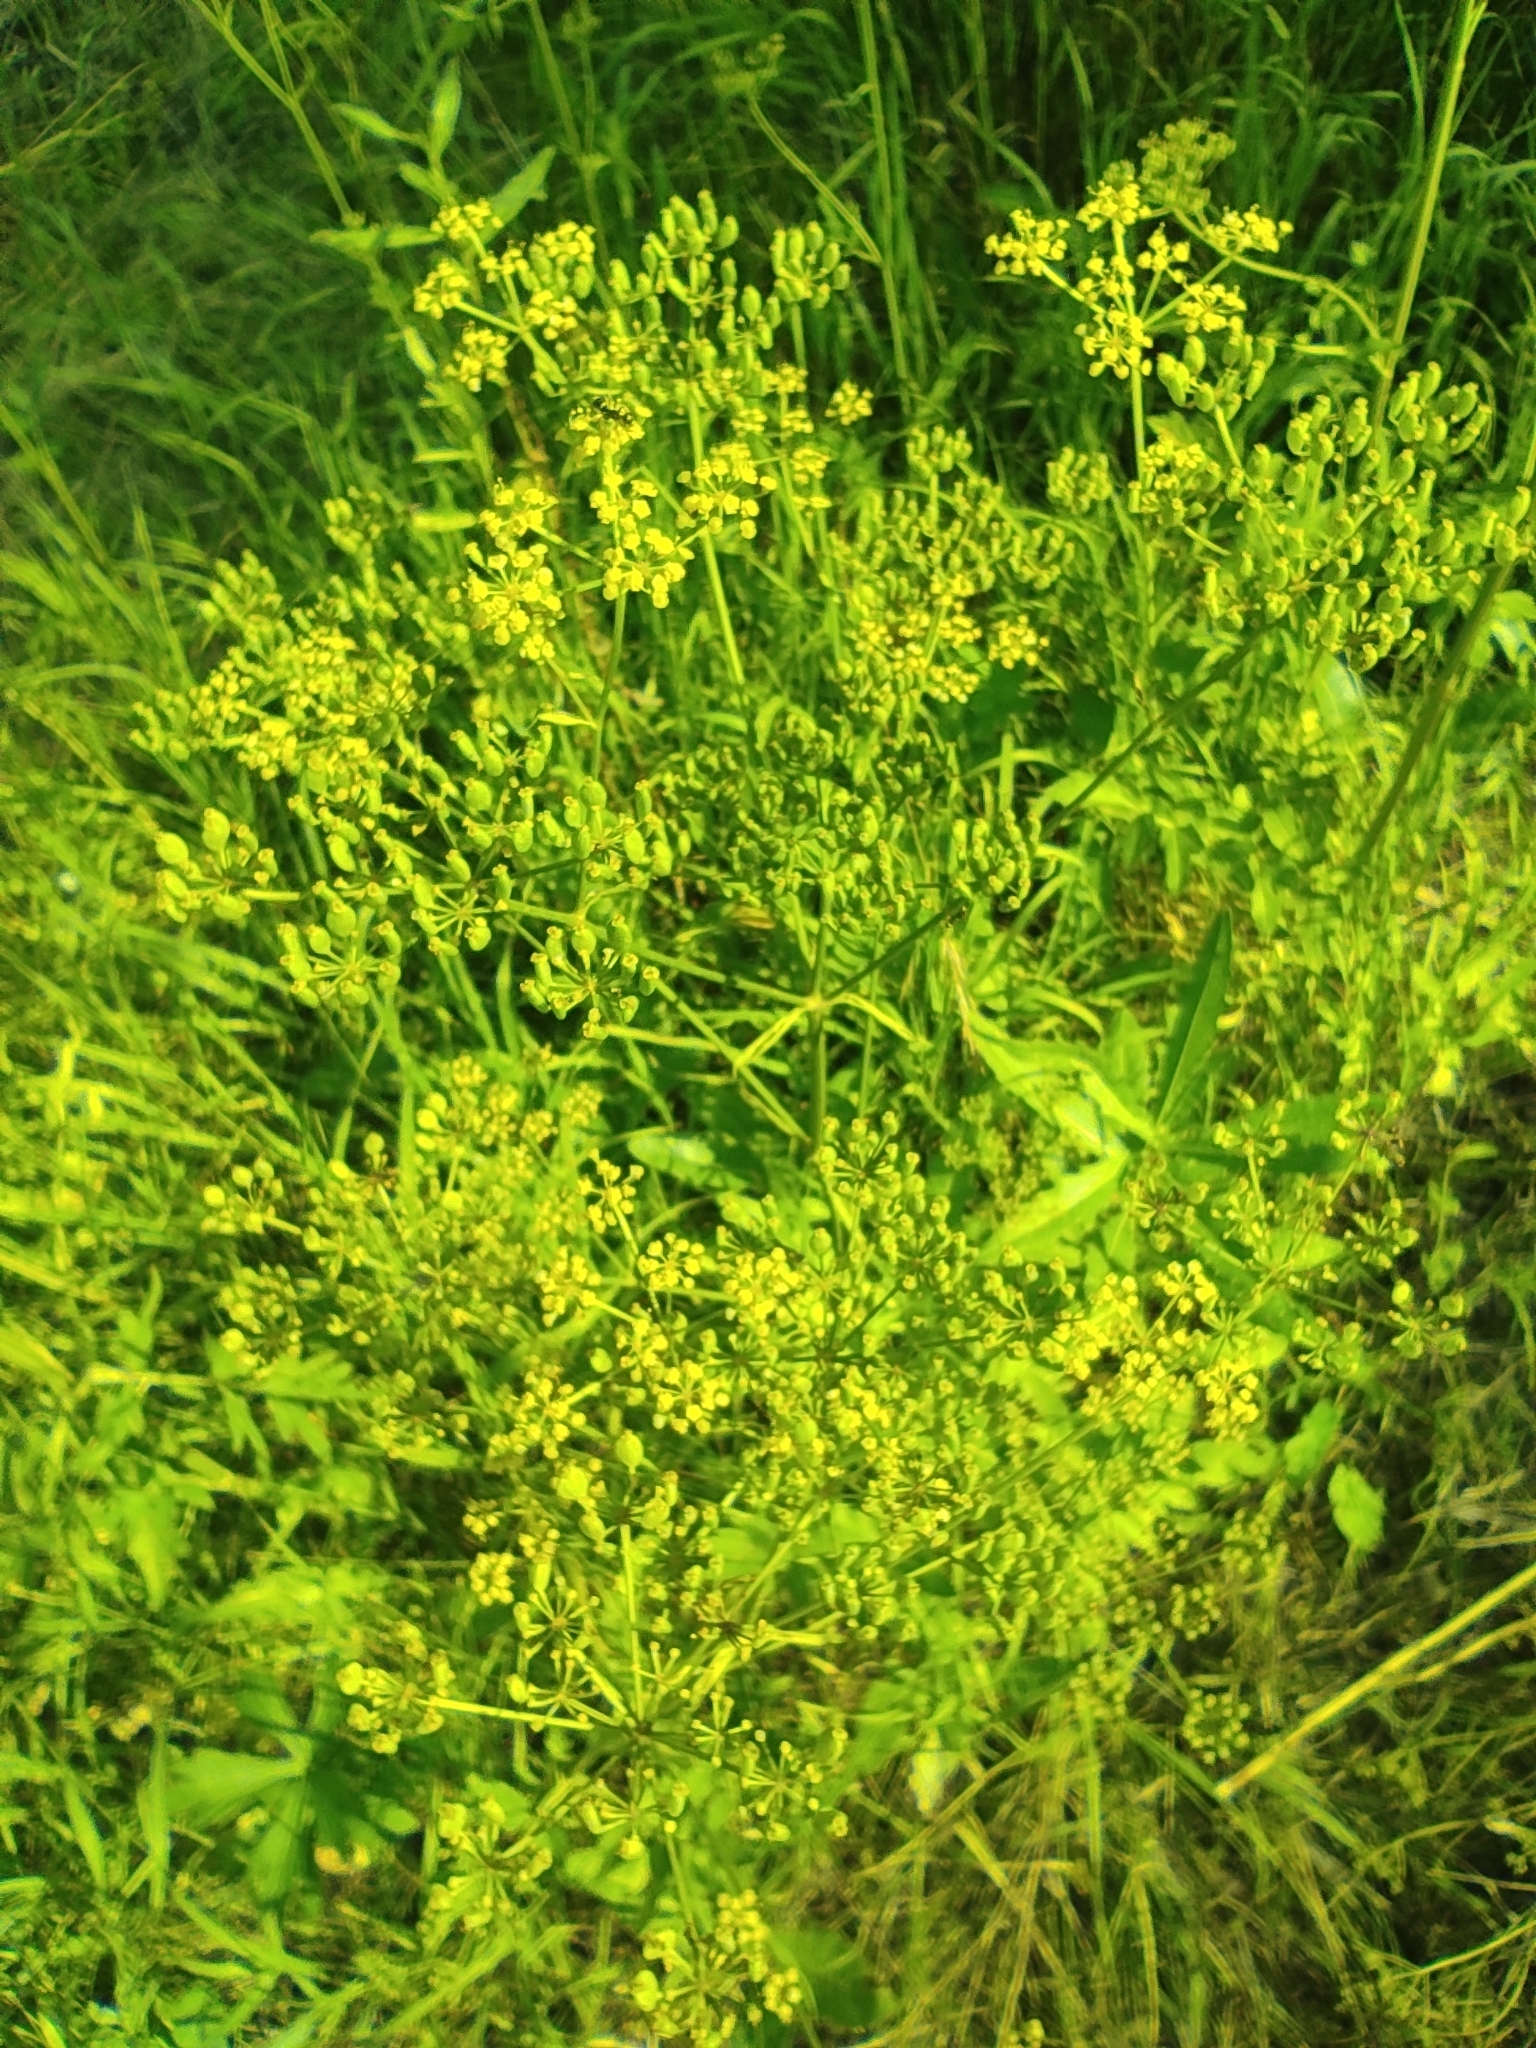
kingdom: Plantae
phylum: Tracheophyta
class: Magnoliopsida
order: Apiales
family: Apiaceae
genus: Pastinaca
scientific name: Pastinaca sativa
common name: Wild parsnip
